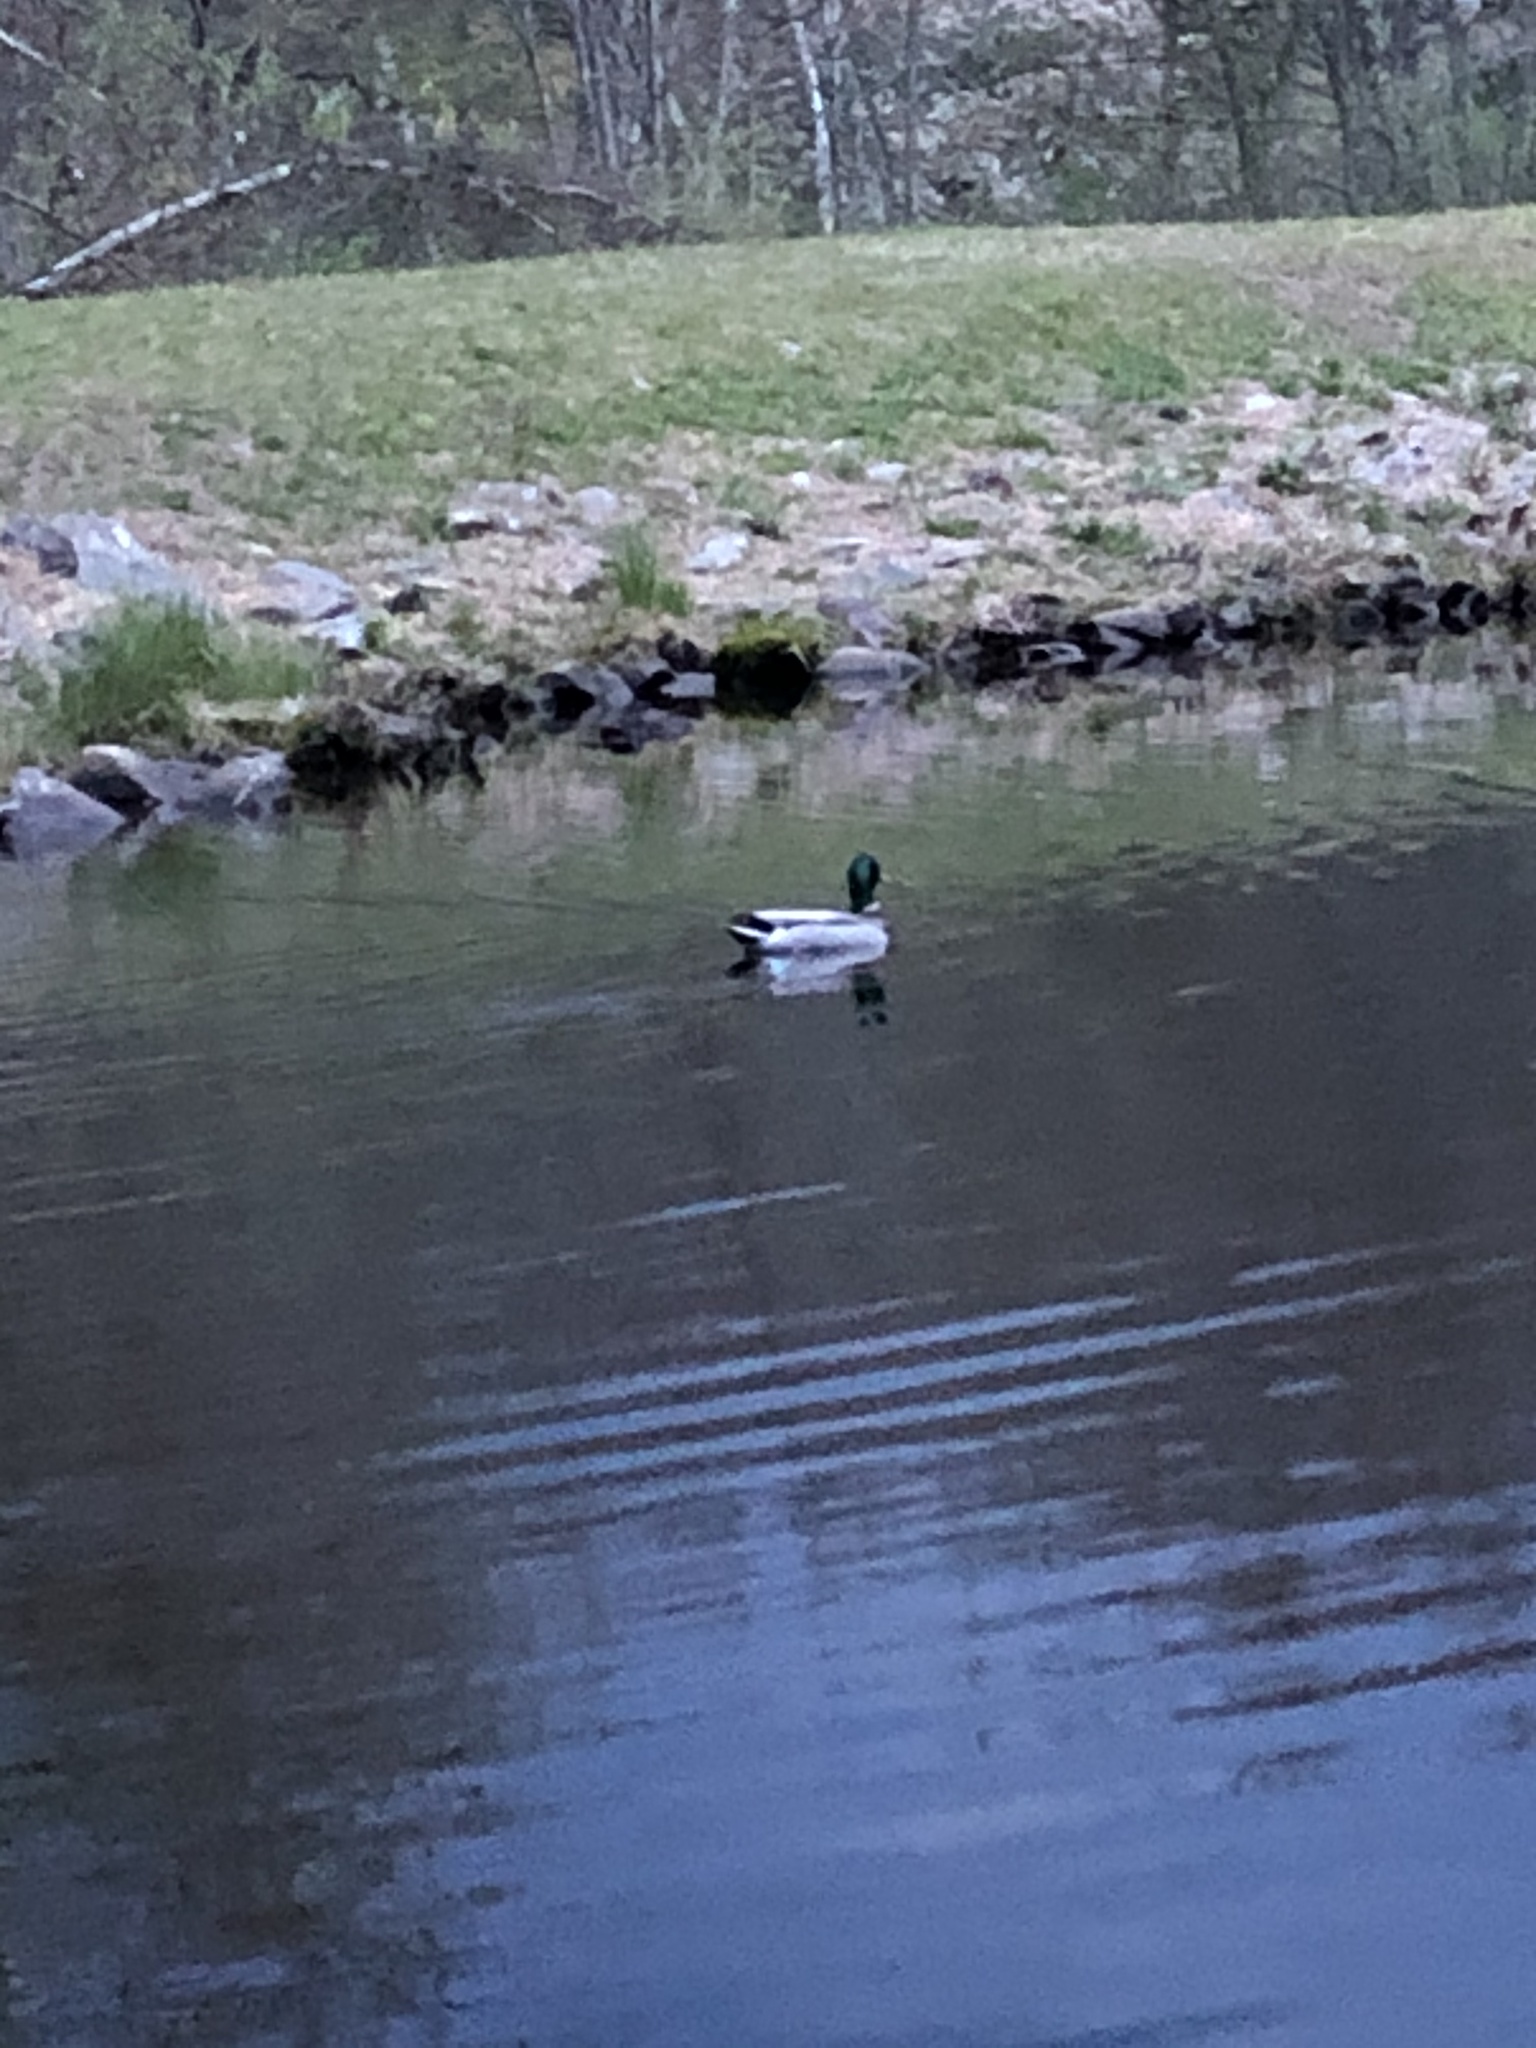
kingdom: Animalia
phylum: Chordata
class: Aves
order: Anseriformes
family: Anatidae
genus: Anas
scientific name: Anas platyrhynchos
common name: Mallard
